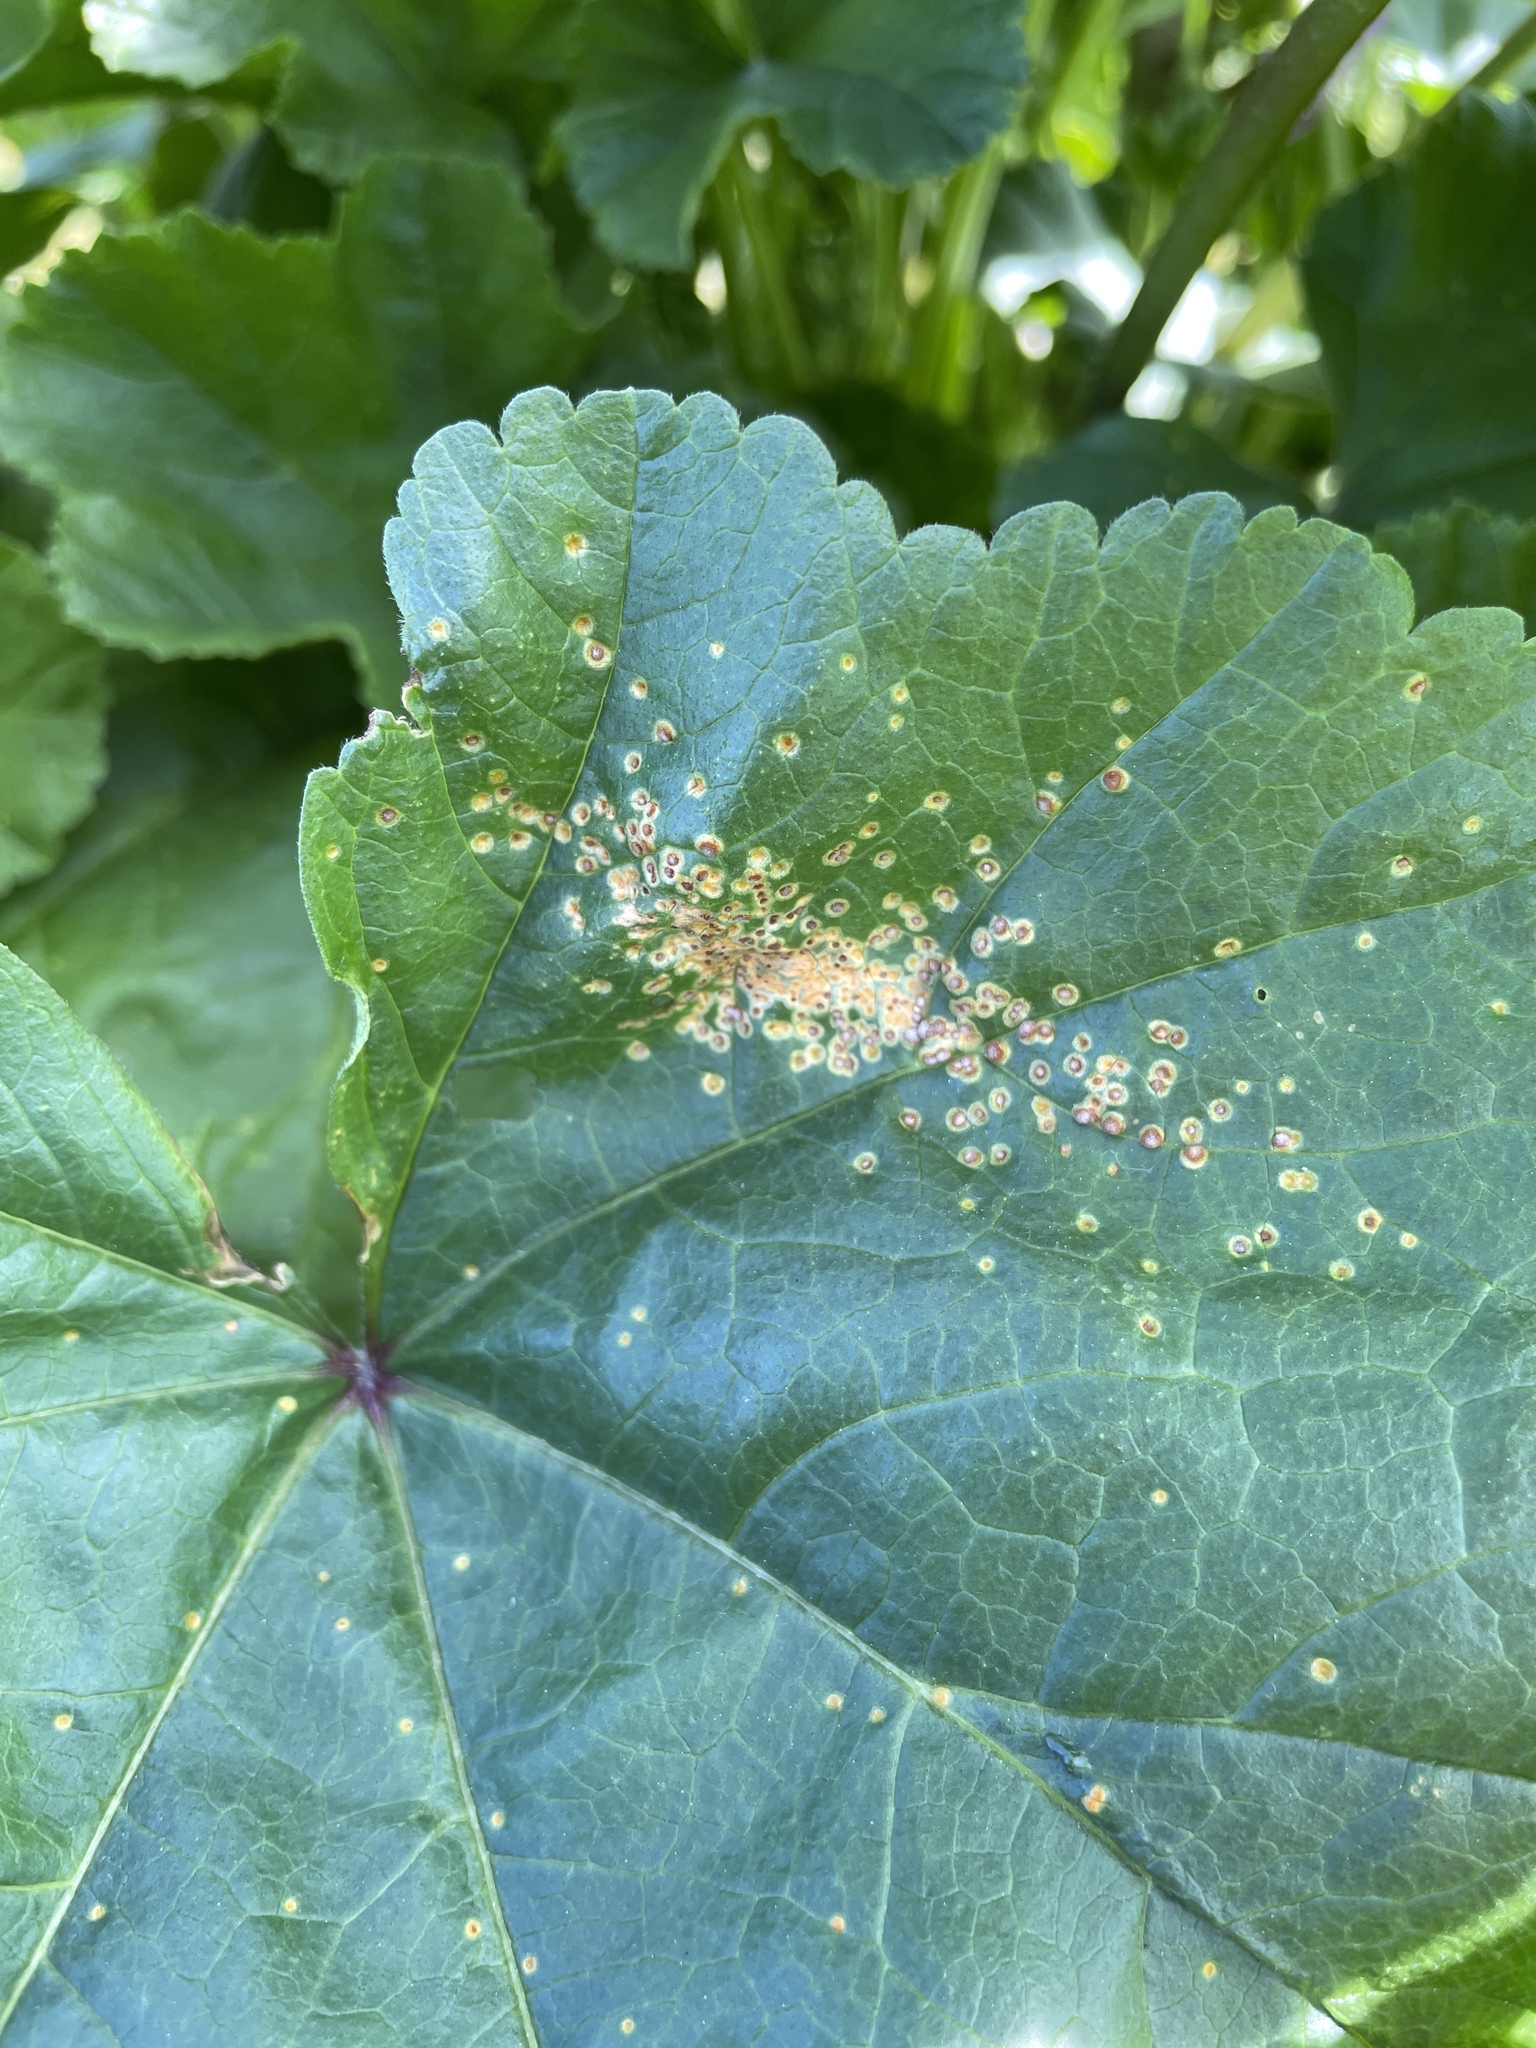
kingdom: Fungi
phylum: Basidiomycota
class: Pucciniomycetes
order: Pucciniales
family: Pucciniaceae
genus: Puccinia
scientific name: Puccinia malvacearum
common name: Hollyhock rust
